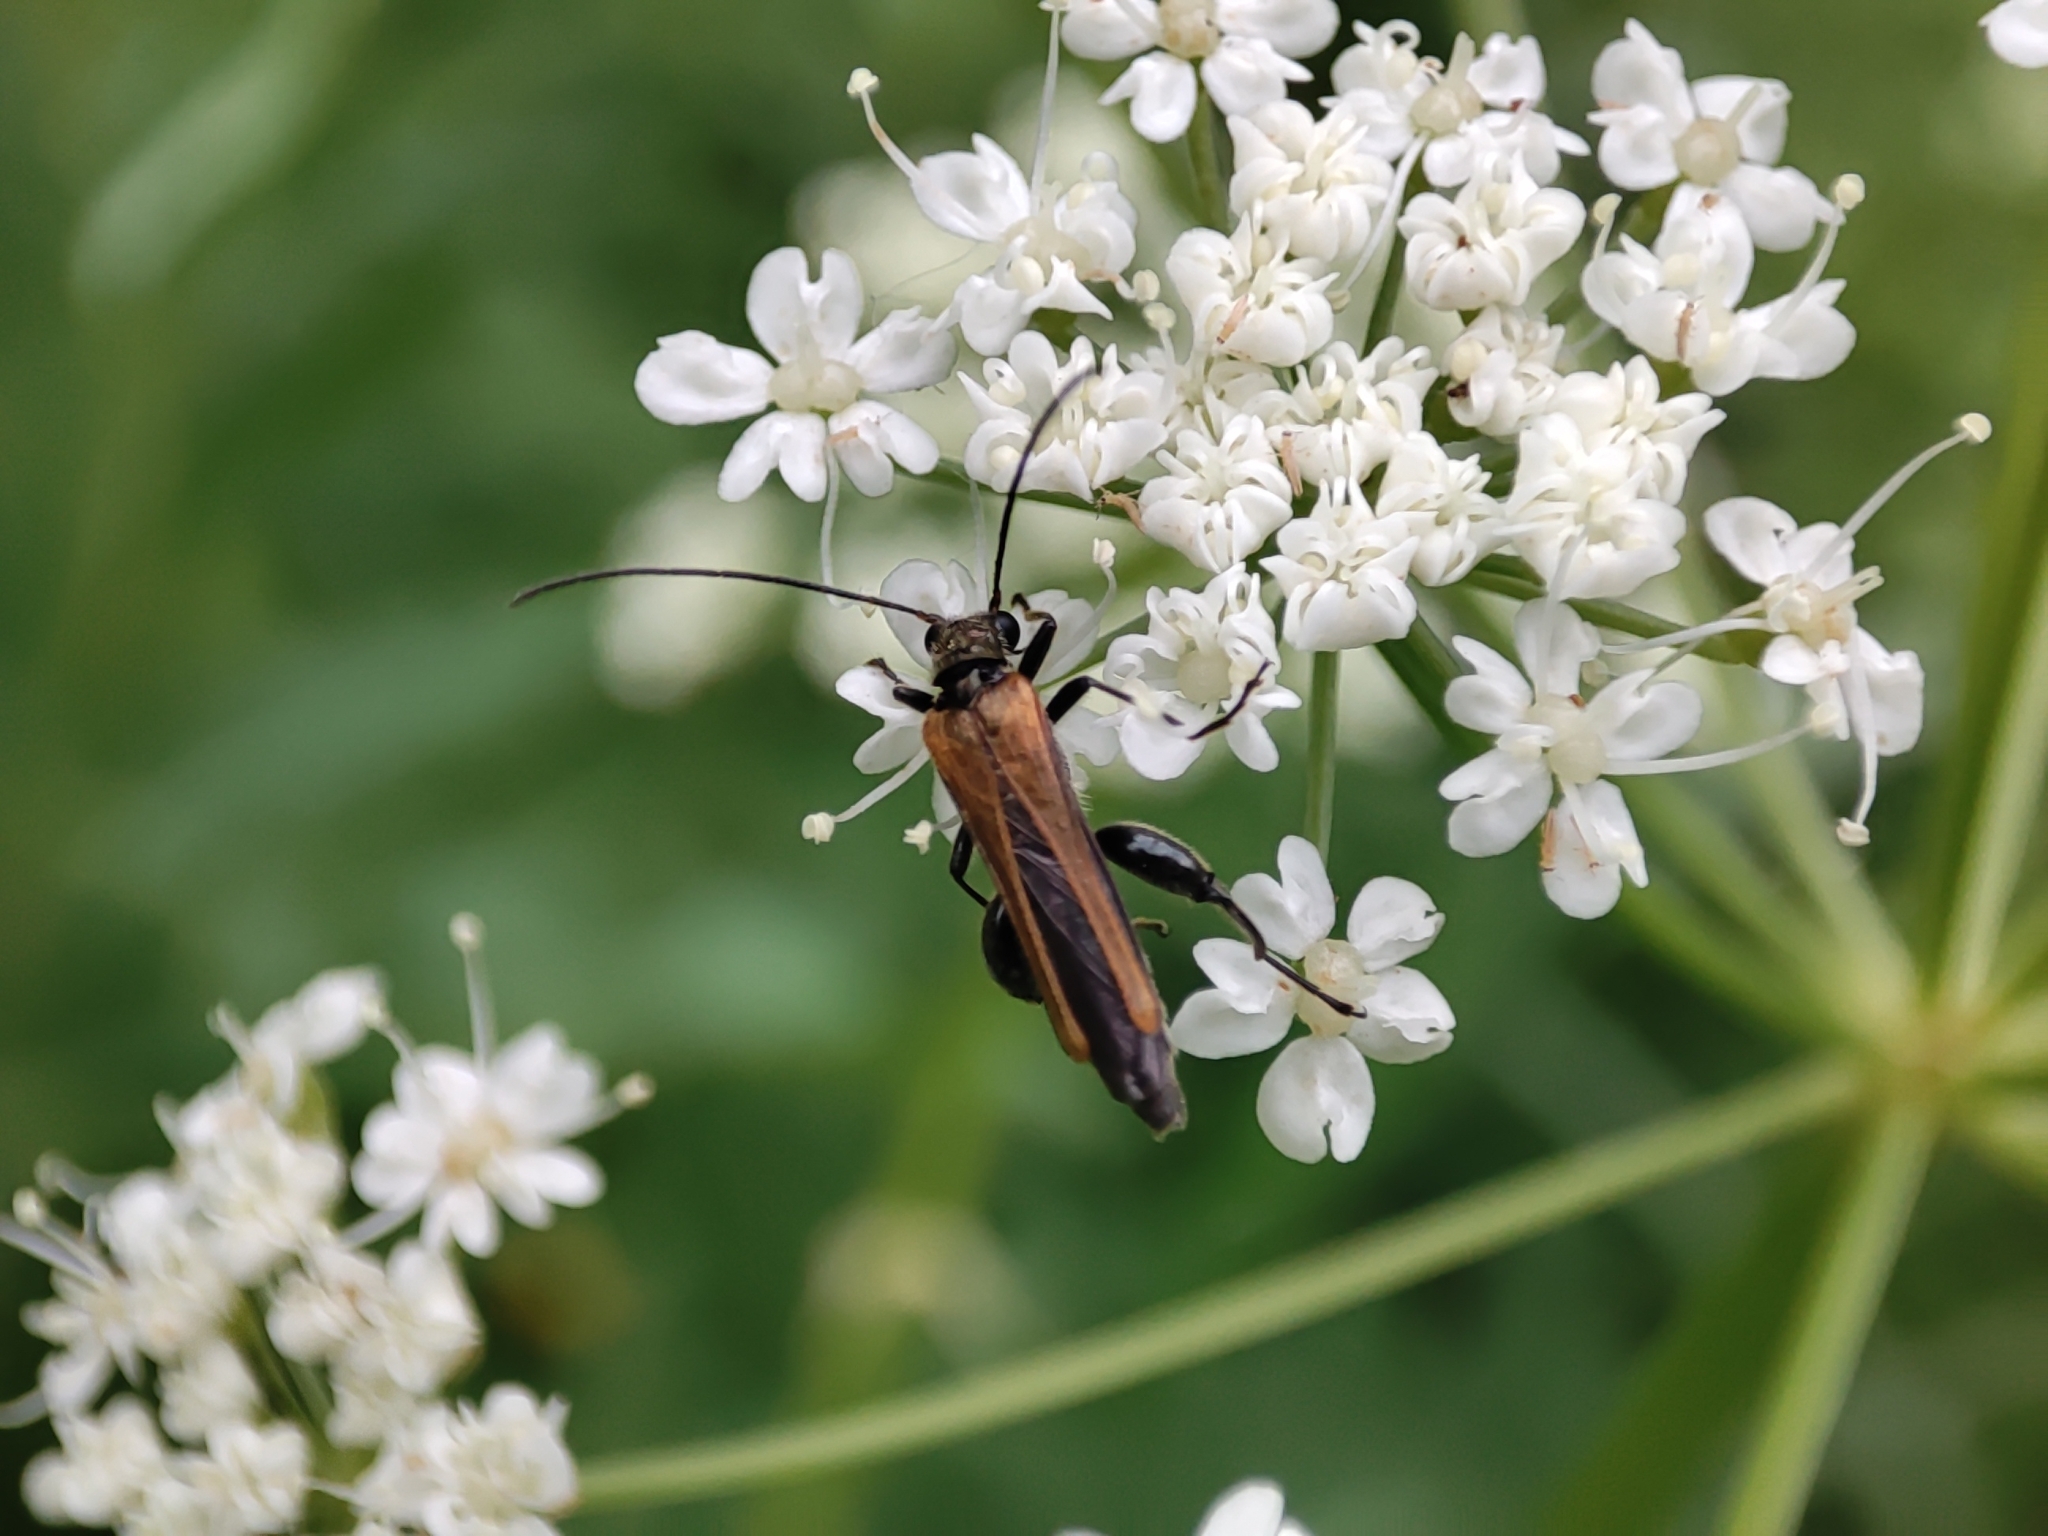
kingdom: Animalia
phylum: Arthropoda
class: Insecta
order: Coleoptera
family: Oedemeridae
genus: Oedemera
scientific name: Oedemera femorata
